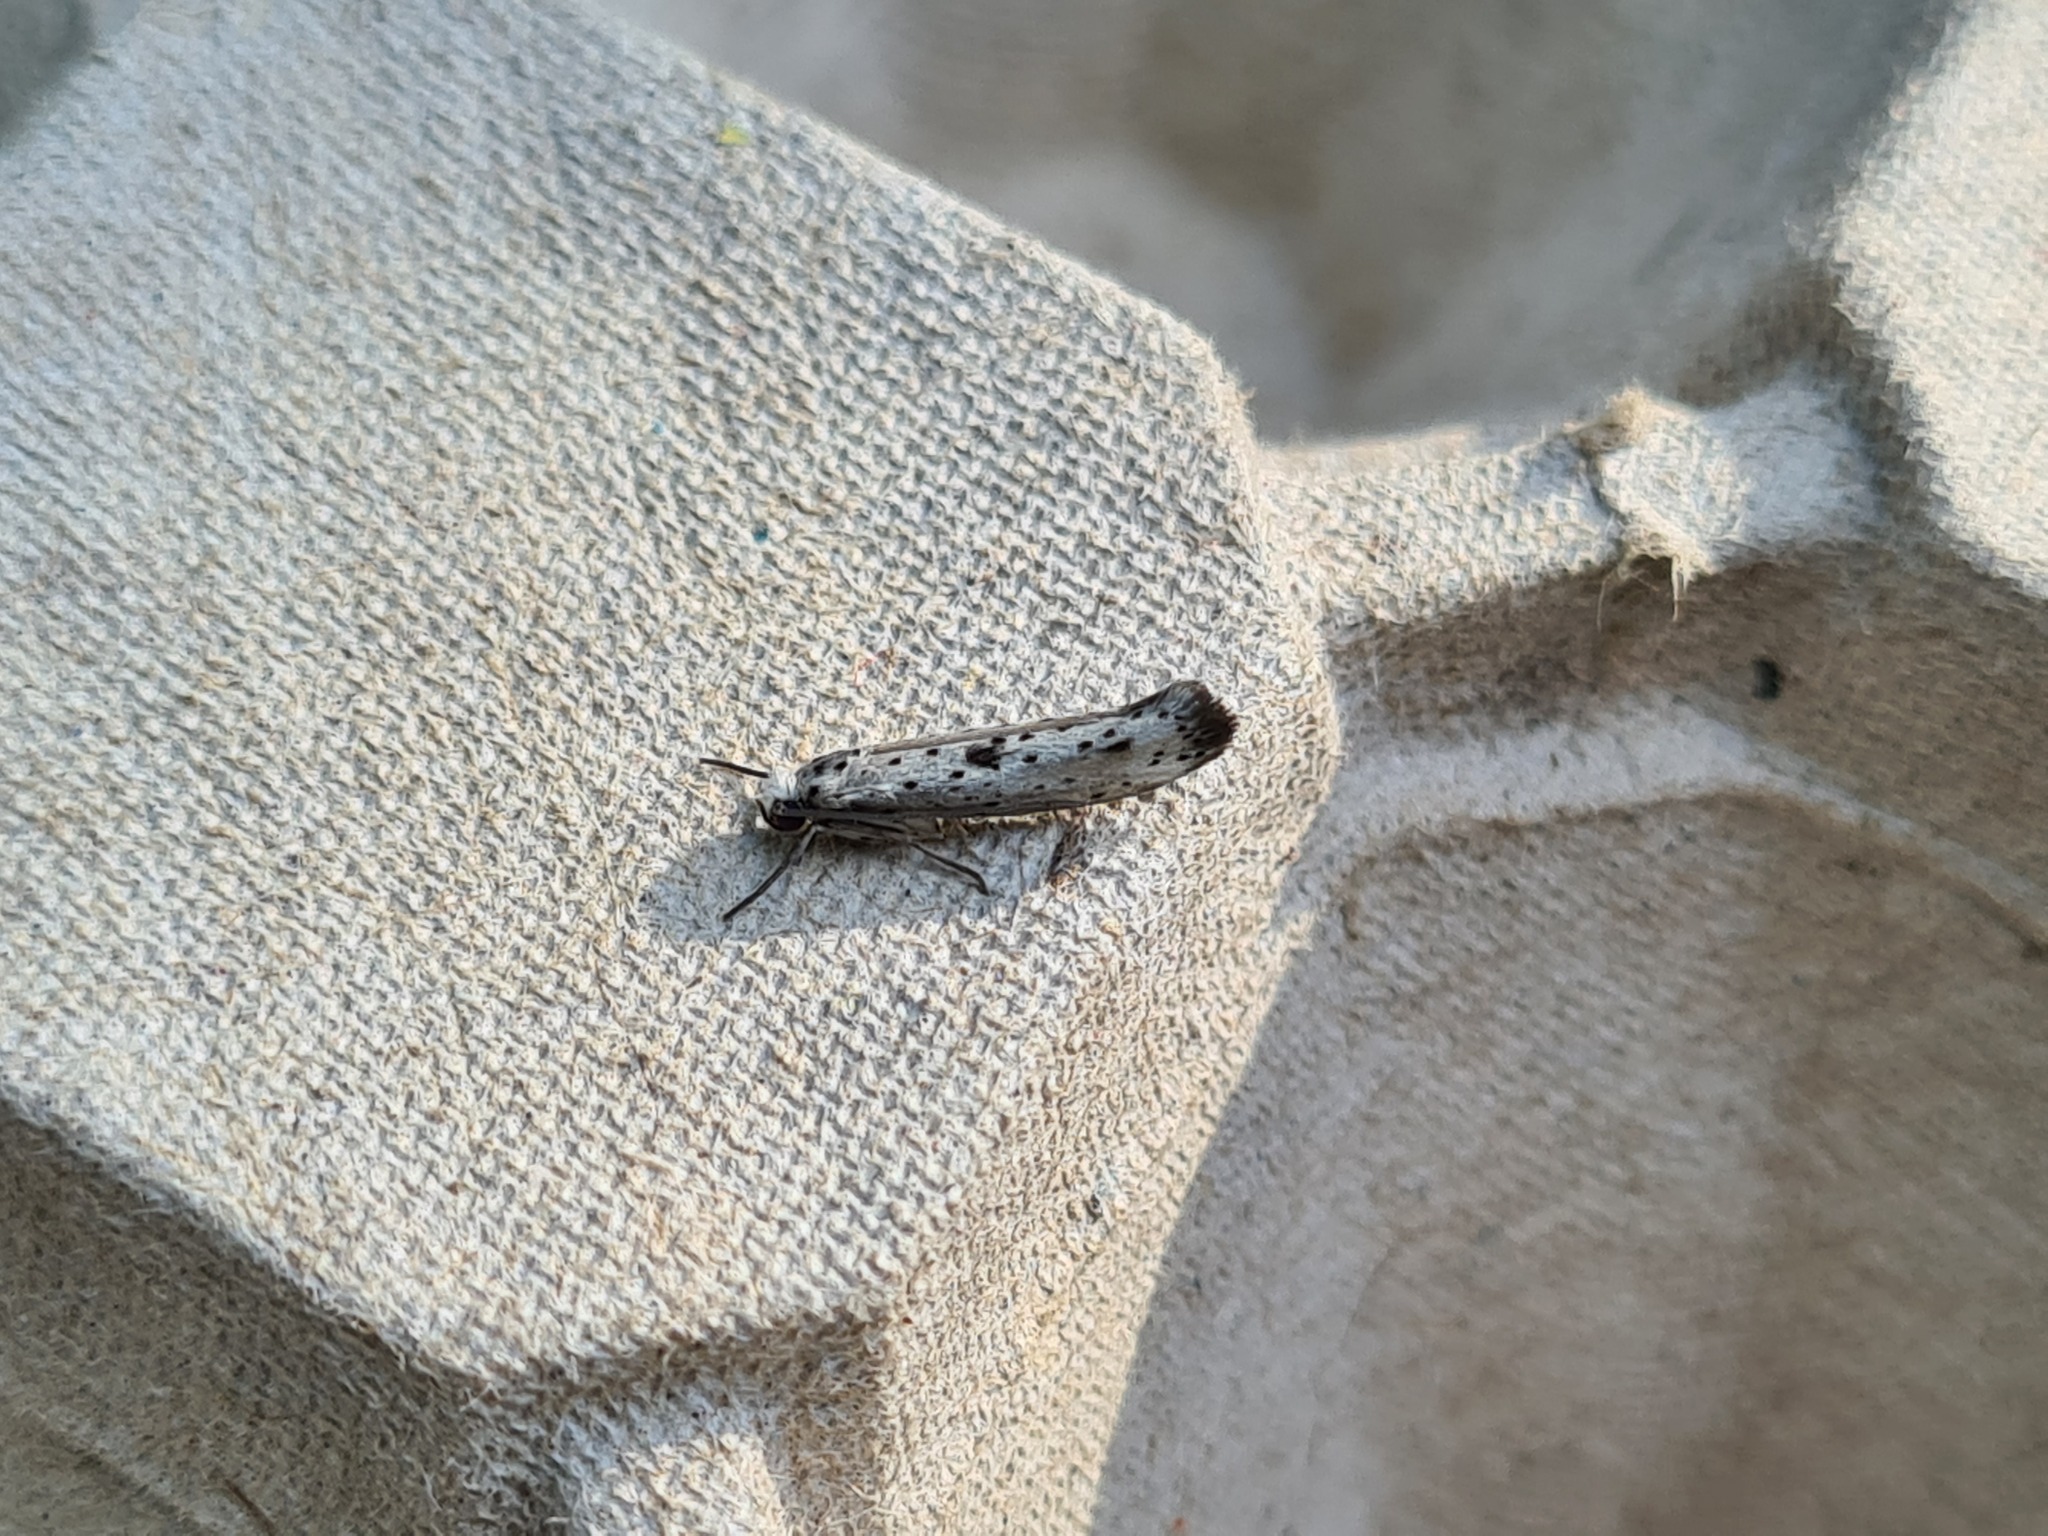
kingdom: Animalia
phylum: Arthropoda
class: Insecta
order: Lepidoptera
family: Yponomeutidae
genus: Yponomeuta
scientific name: Yponomeuta plumbella
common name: Black-tipped ermine
